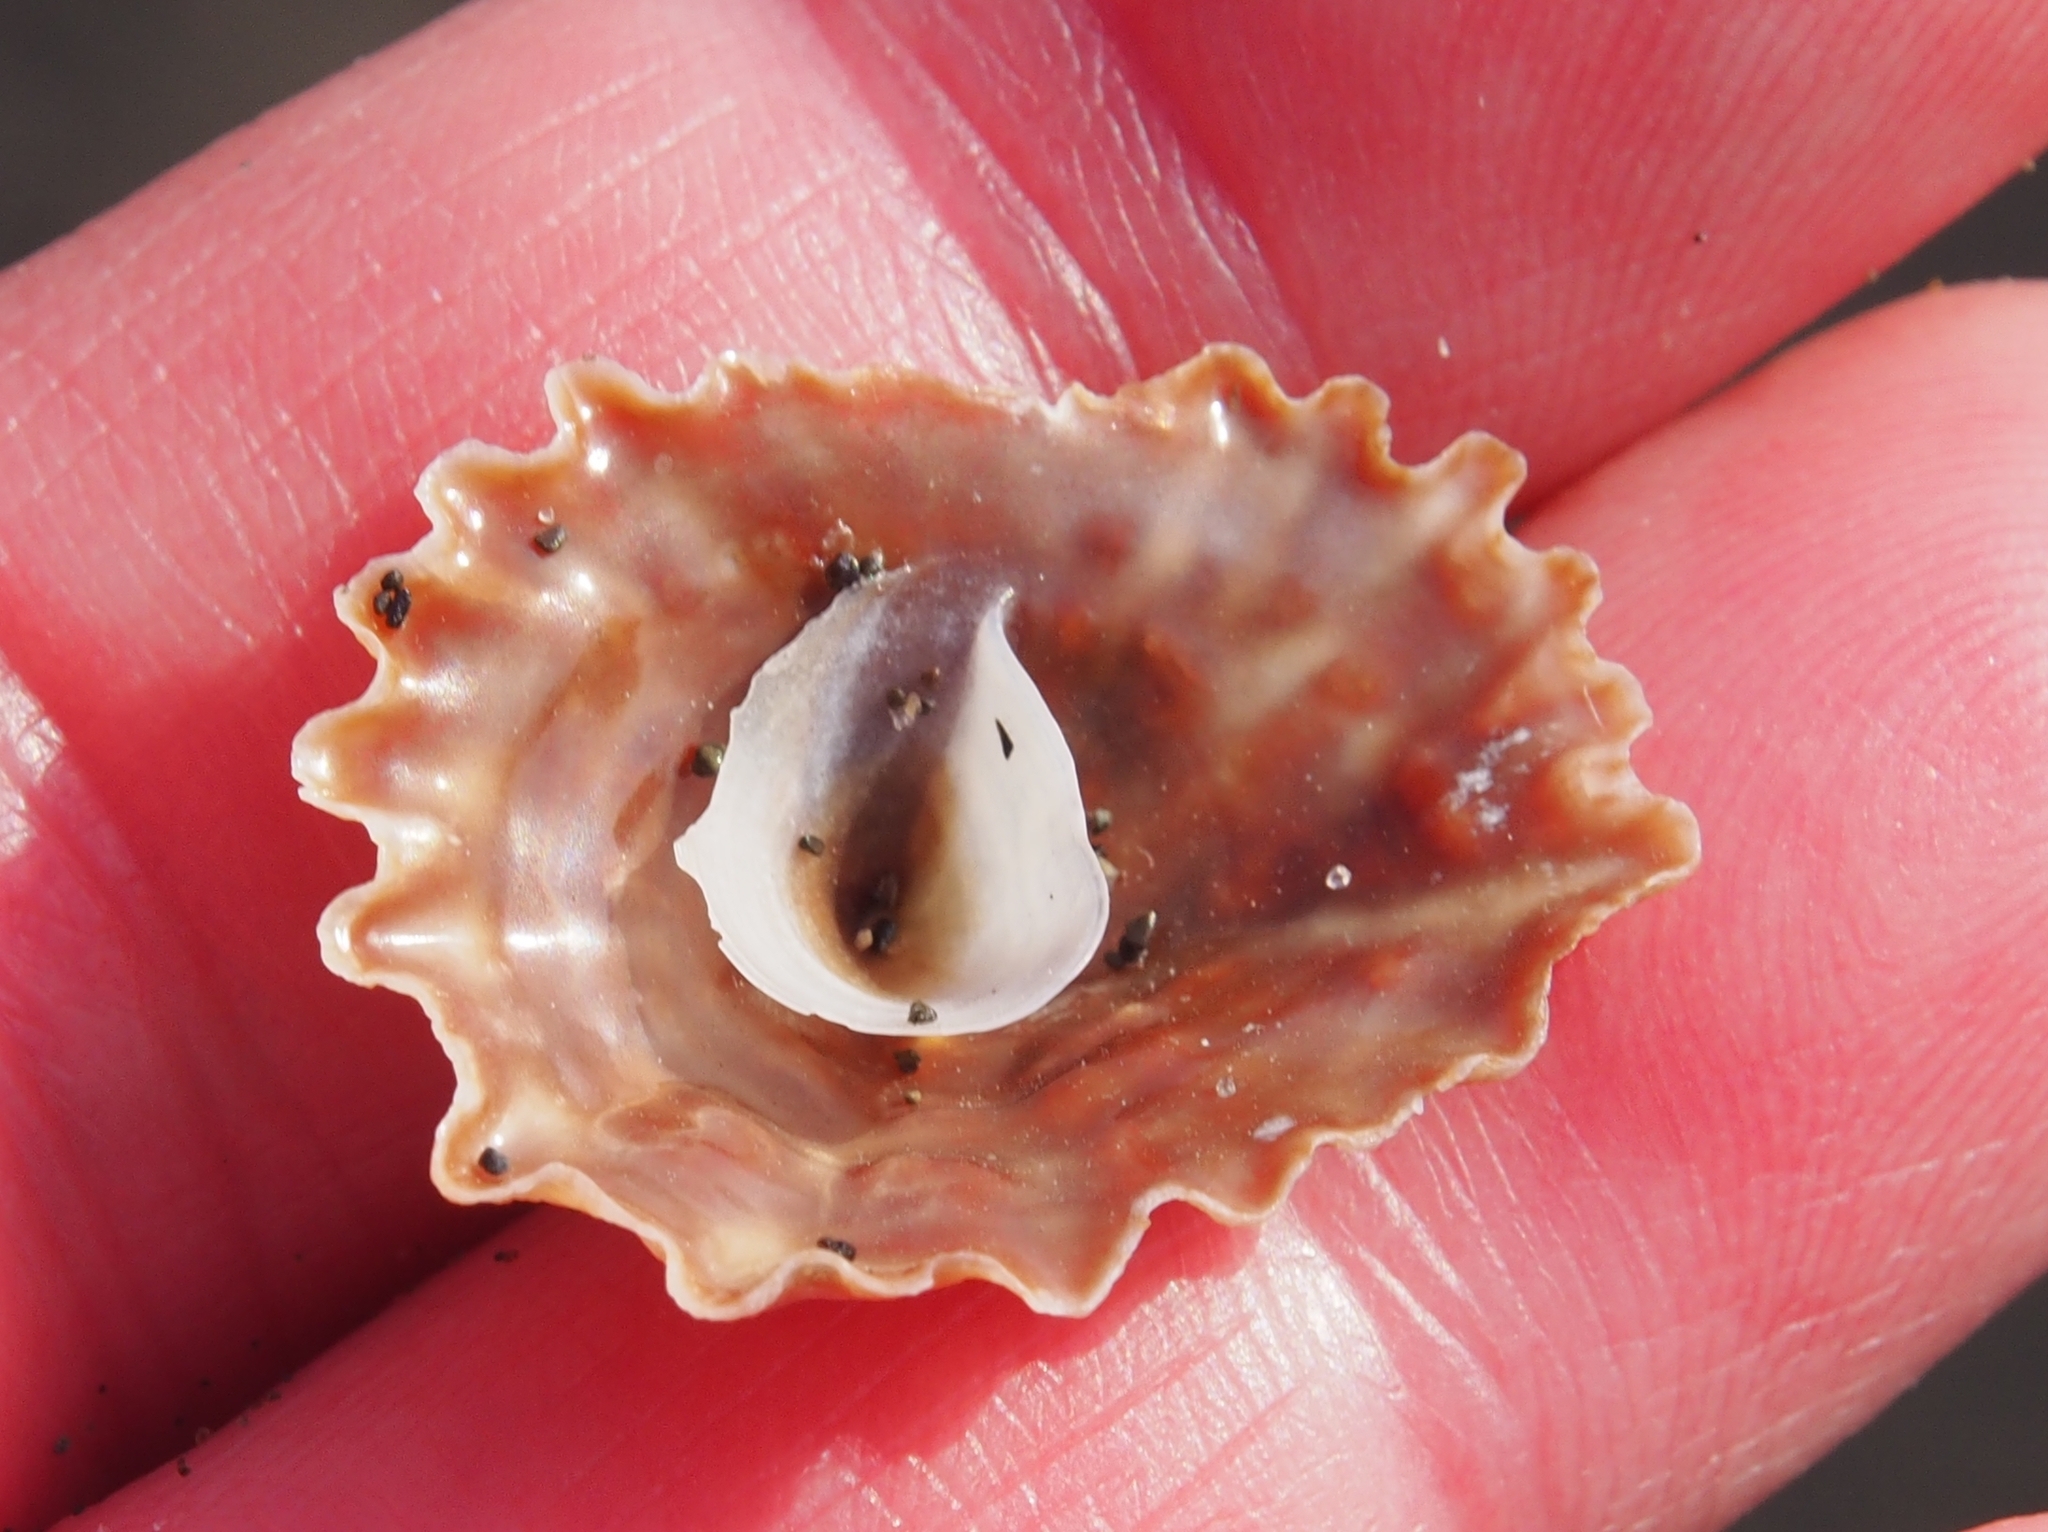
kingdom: Animalia
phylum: Mollusca
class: Gastropoda
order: Littorinimorpha
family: Calyptraeidae
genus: Crucibulum
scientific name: Crucibulum scutellatum
